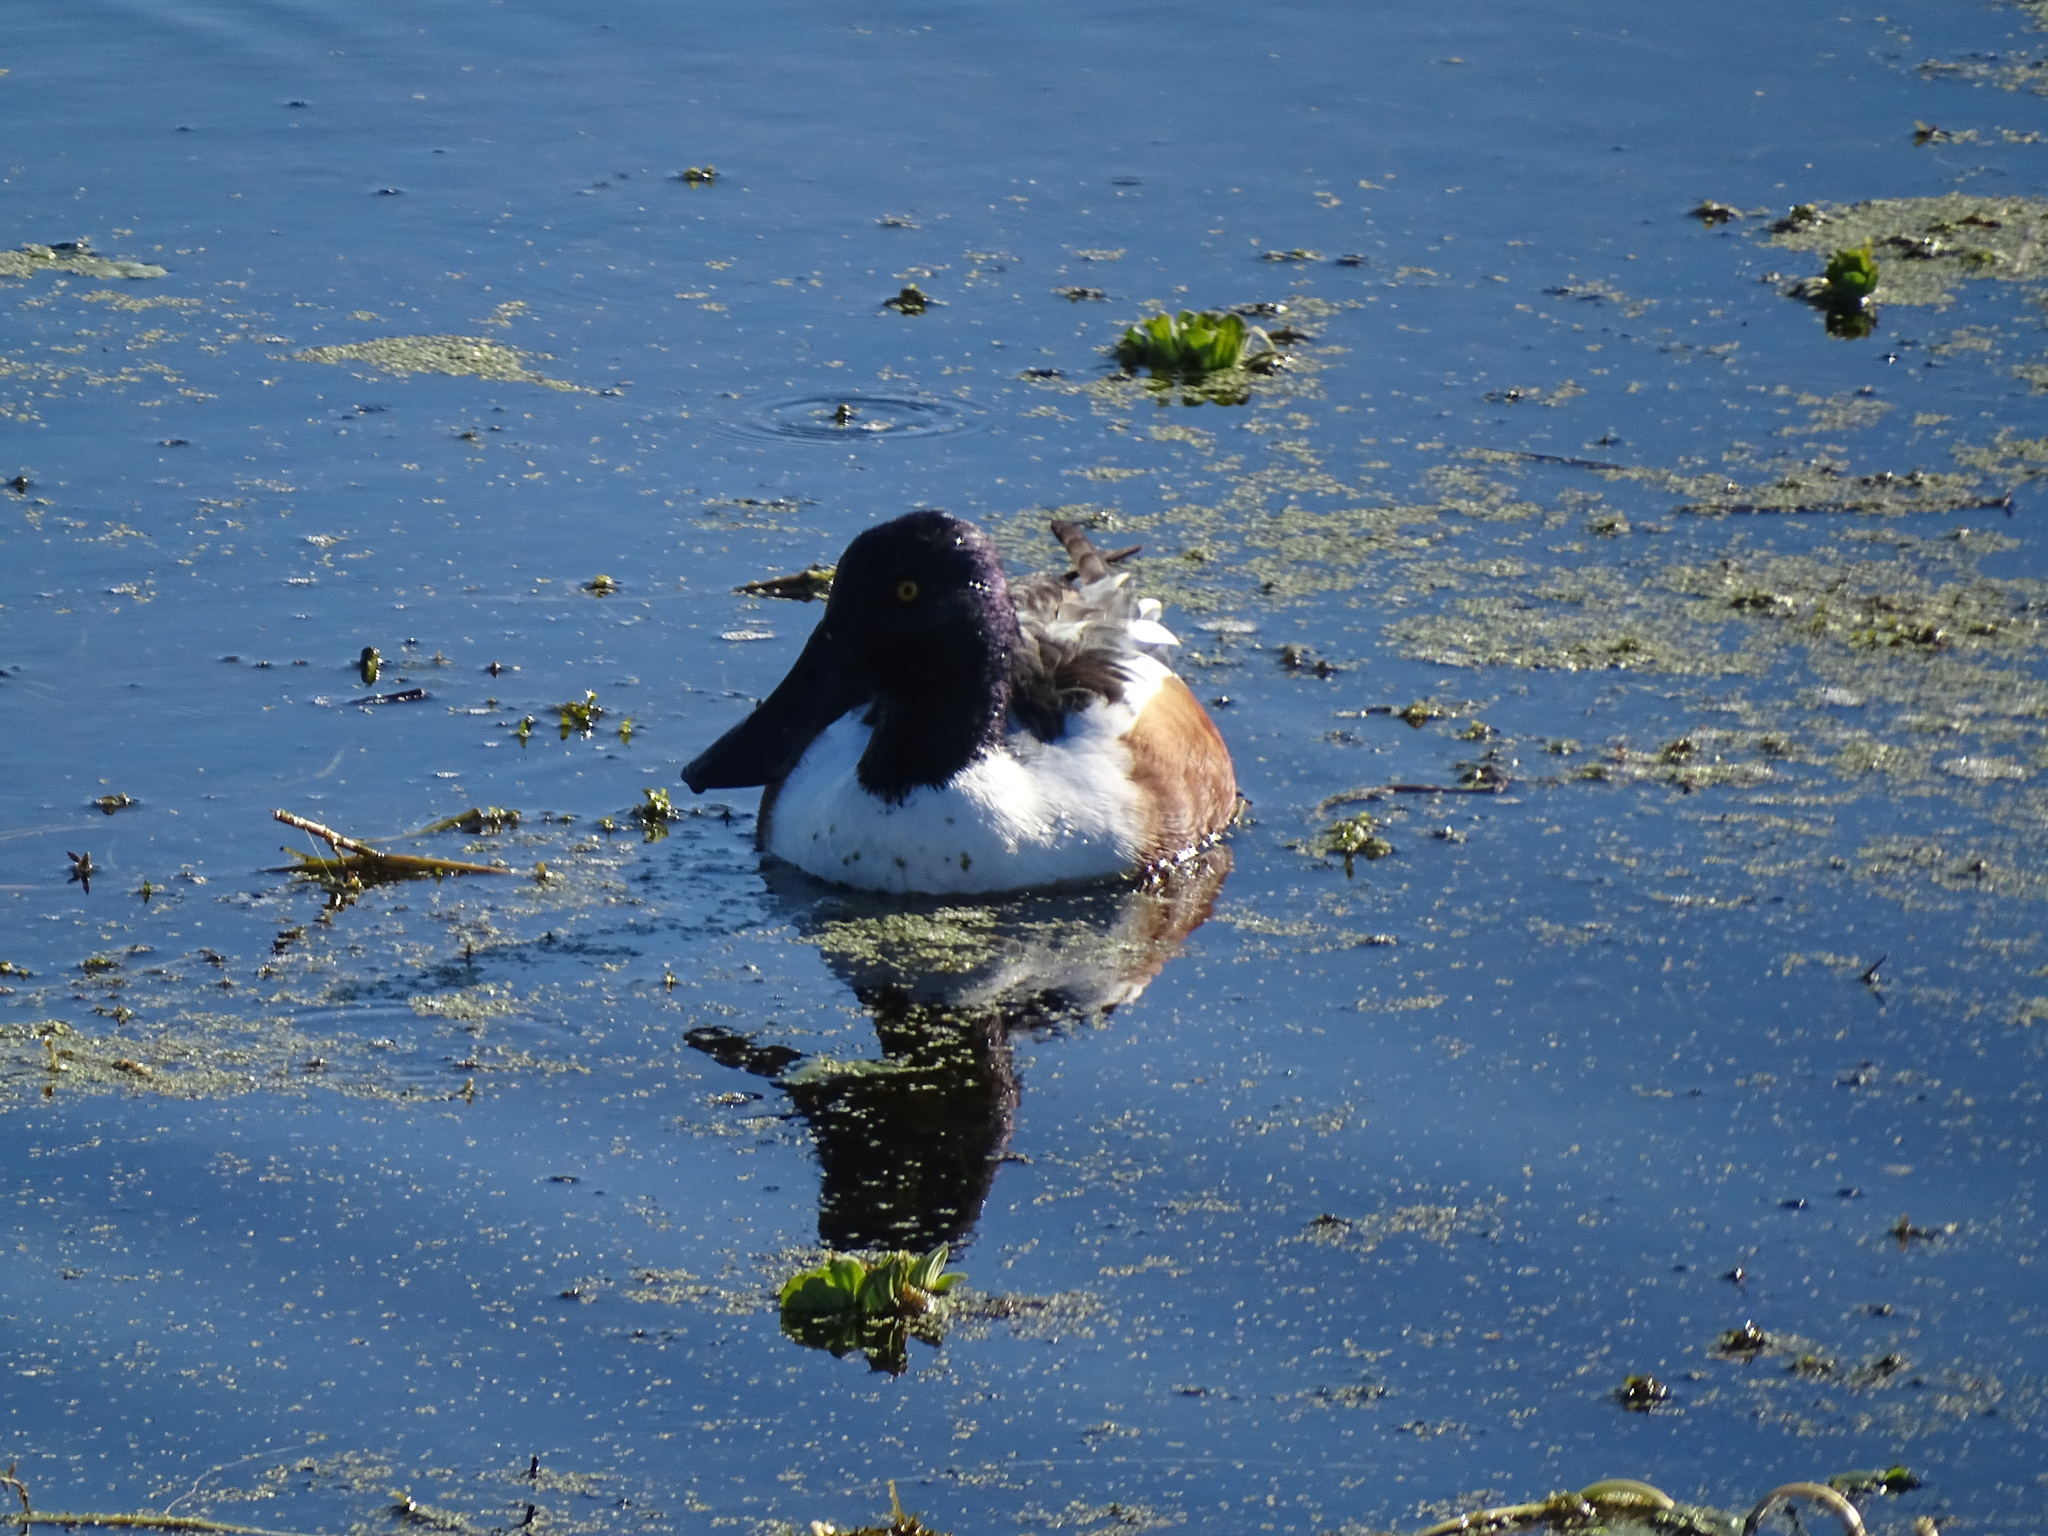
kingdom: Animalia
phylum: Chordata
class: Aves
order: Anseriformes
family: Anatidae
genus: Spatula
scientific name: Spatula clypeata
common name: Northern shoveler
